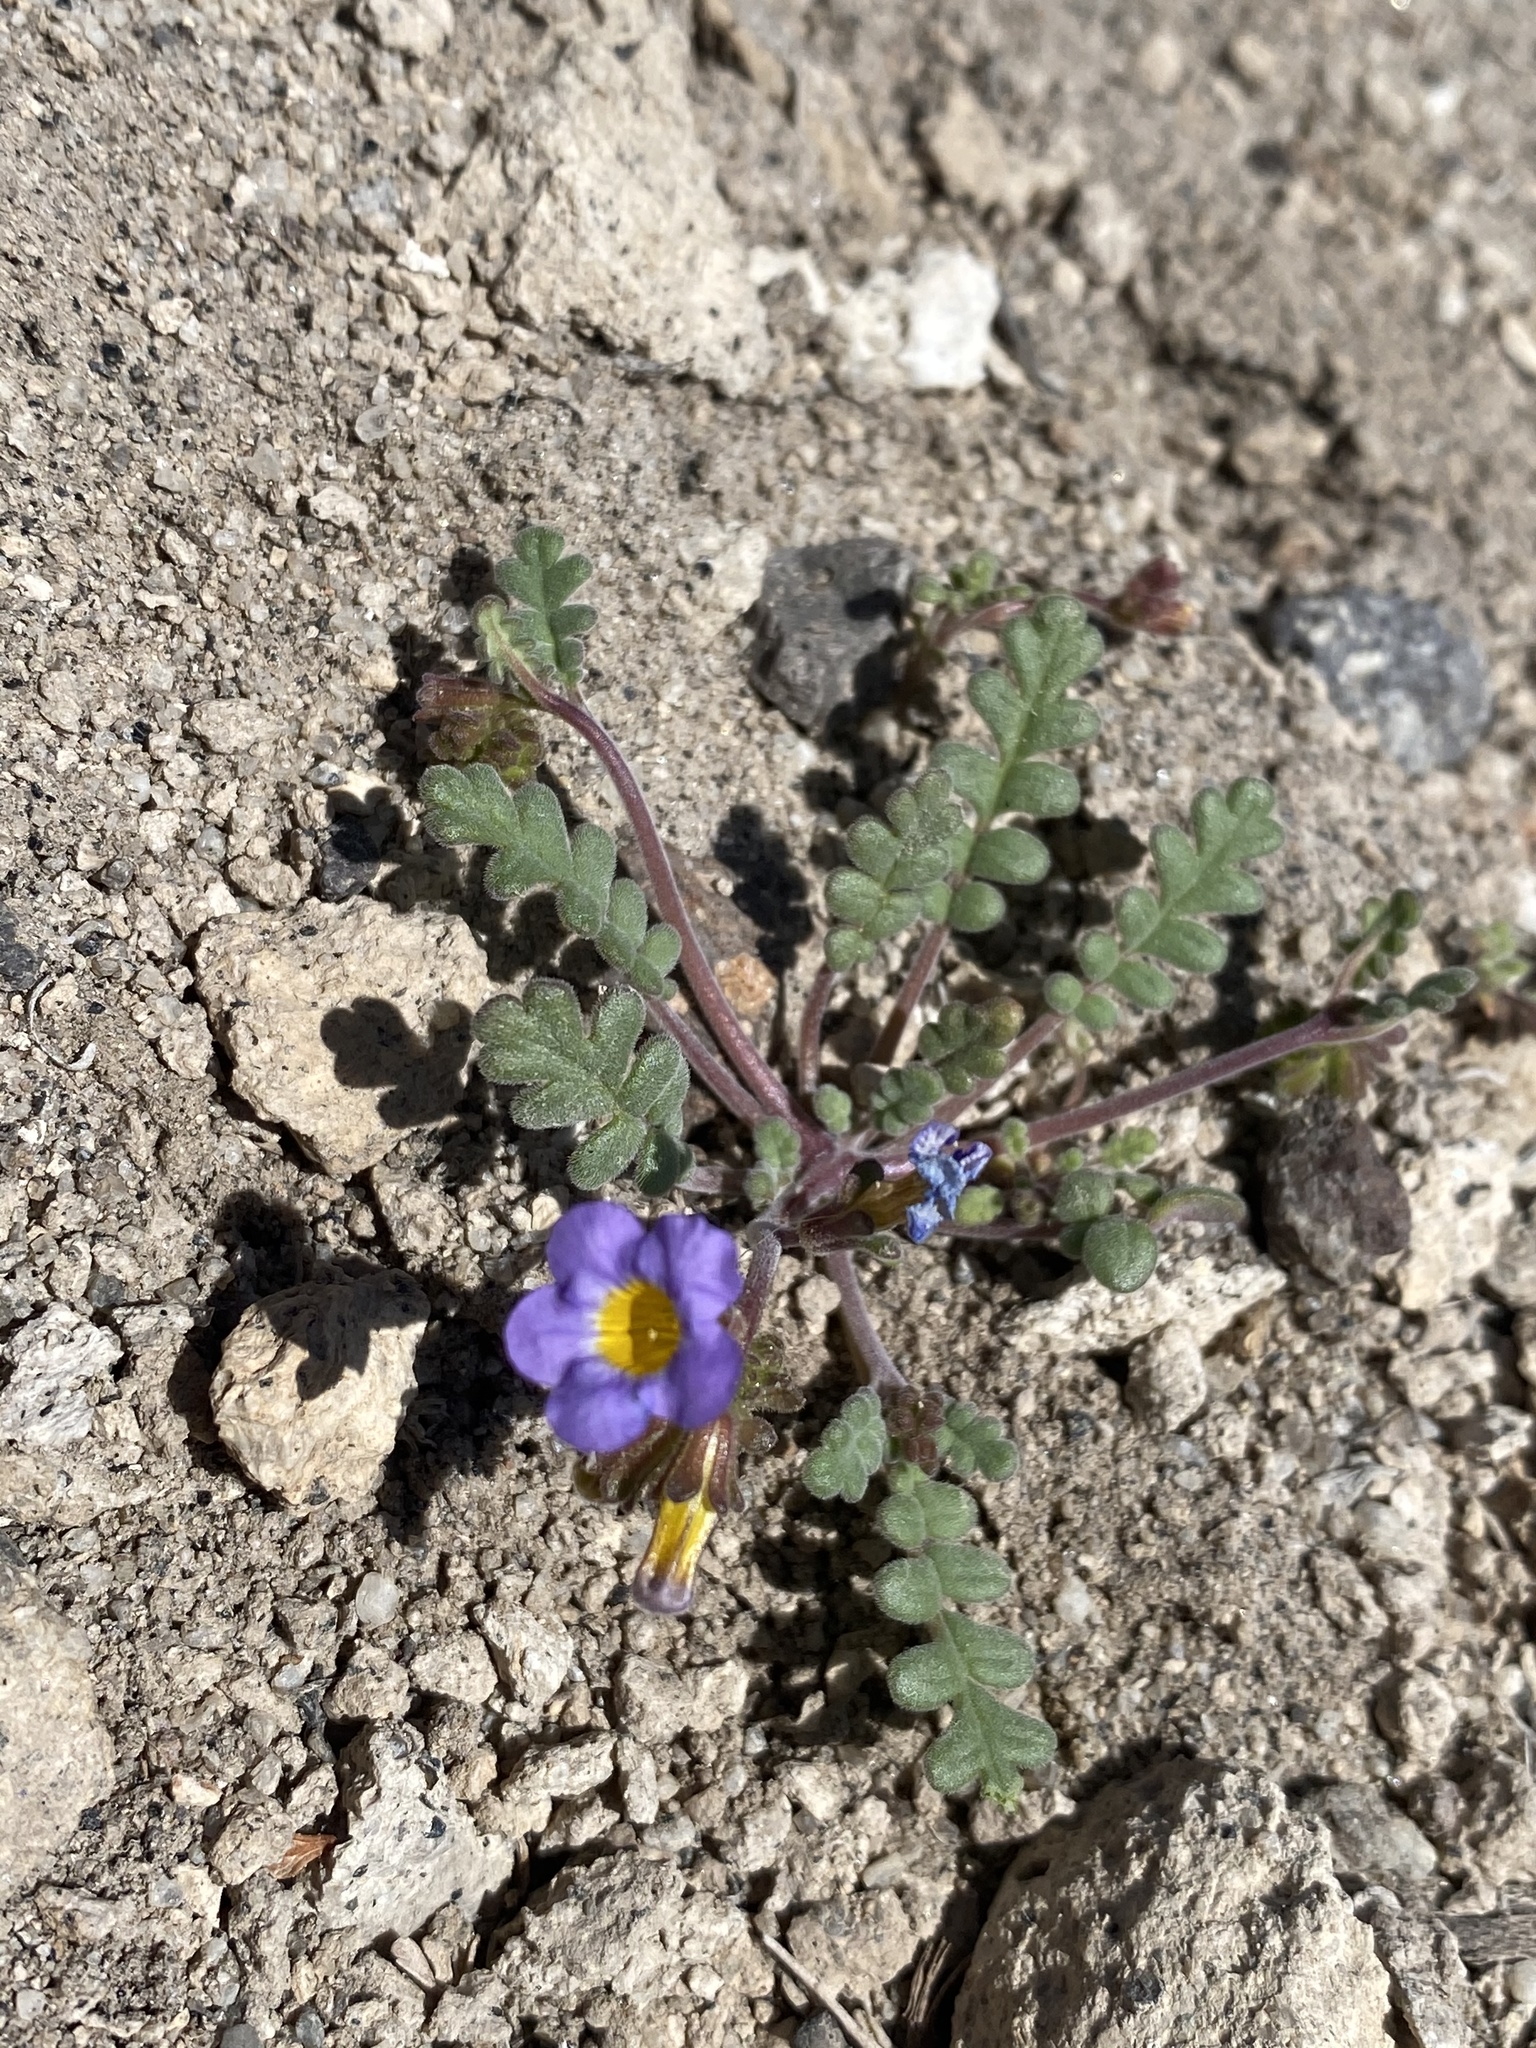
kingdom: Plantae
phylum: Tracheophyta
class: Magnoliopsida
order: Boraginales
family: Hydrophyllaceae
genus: Phacelia
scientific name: Phacelia fremontii
